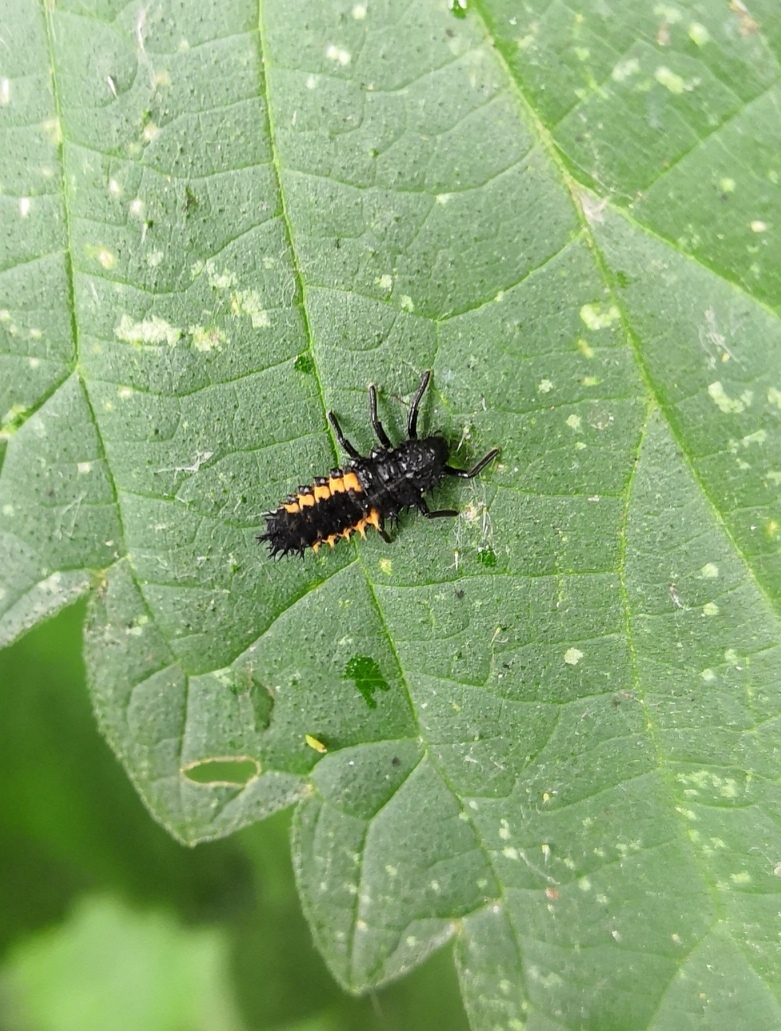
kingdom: Animalia
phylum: Arthropoda
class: Insecta
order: Coleoptera
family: Coccinellidae
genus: Harmonia
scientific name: Harmonia axyridis
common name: Harlequin ladybird
